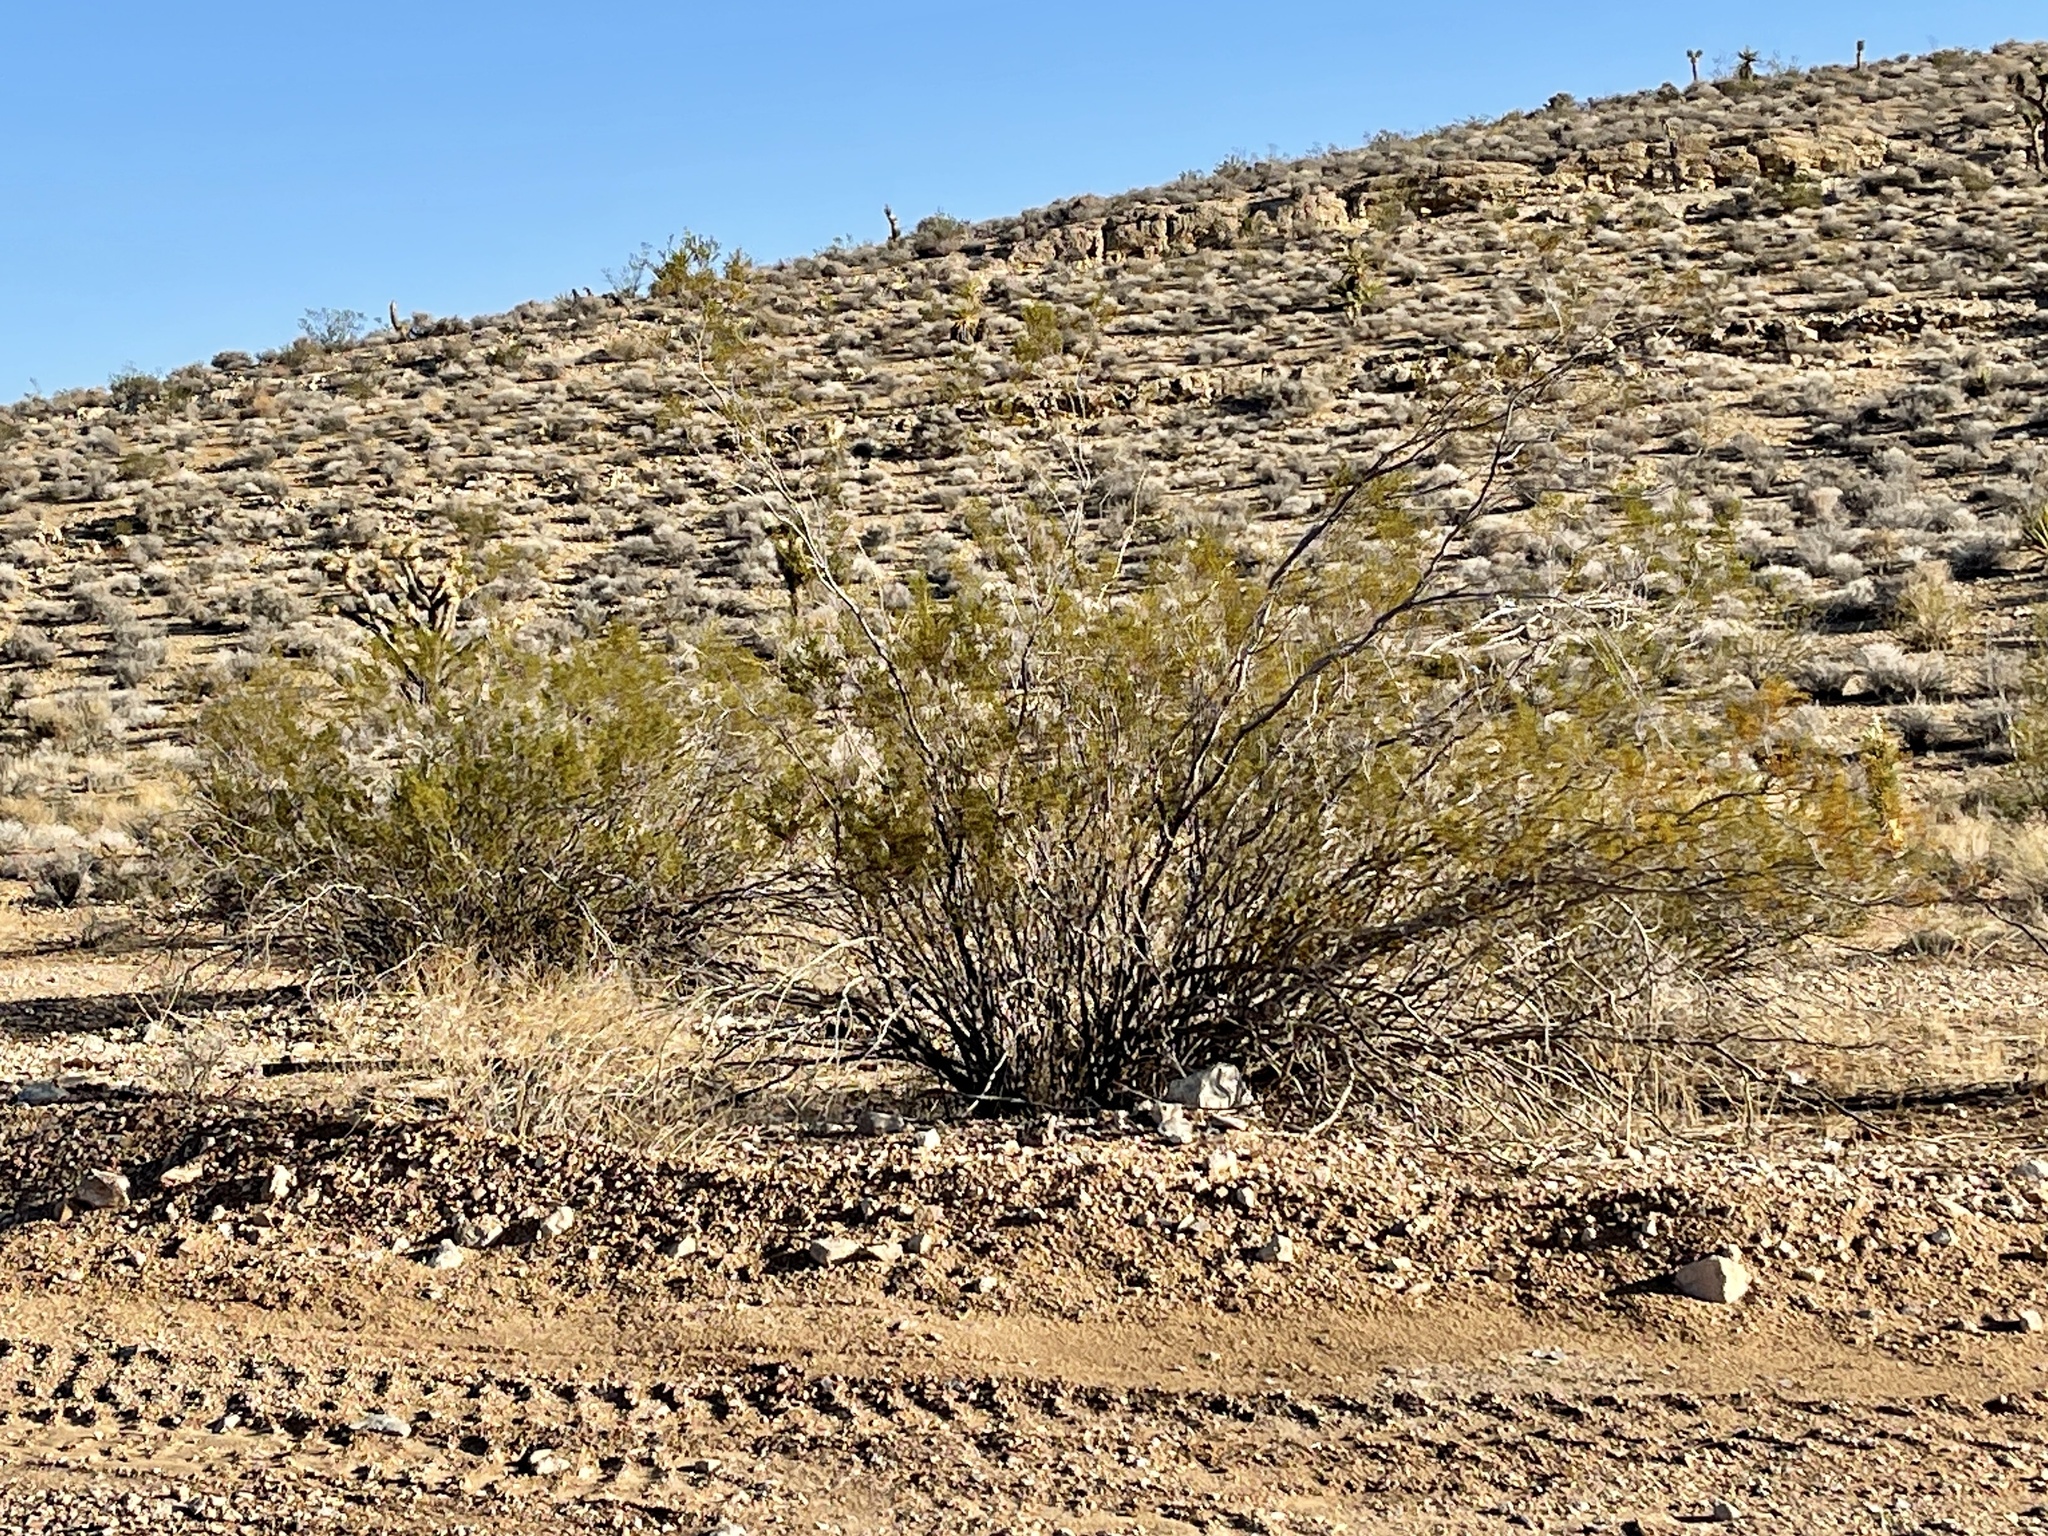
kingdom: Plantae
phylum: Tracheophyta
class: Magnoliopsida
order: Zygophyllales
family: Zygophyllaceae
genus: Larrea
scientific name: Larrea tridentata
